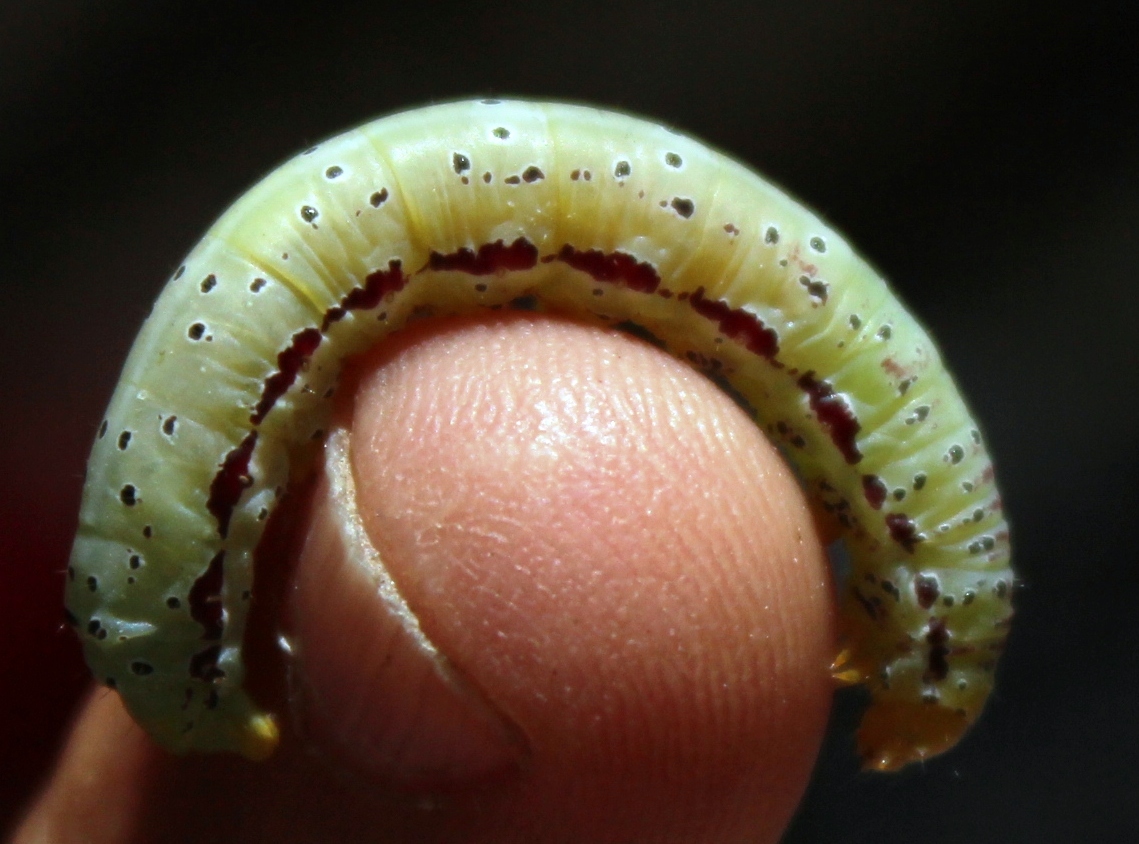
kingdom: Animalia
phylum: Arthropoda
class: Insecta
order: Lepidoptera
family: Noctuidae
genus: Compsotata
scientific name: Compsotata elegantissima
